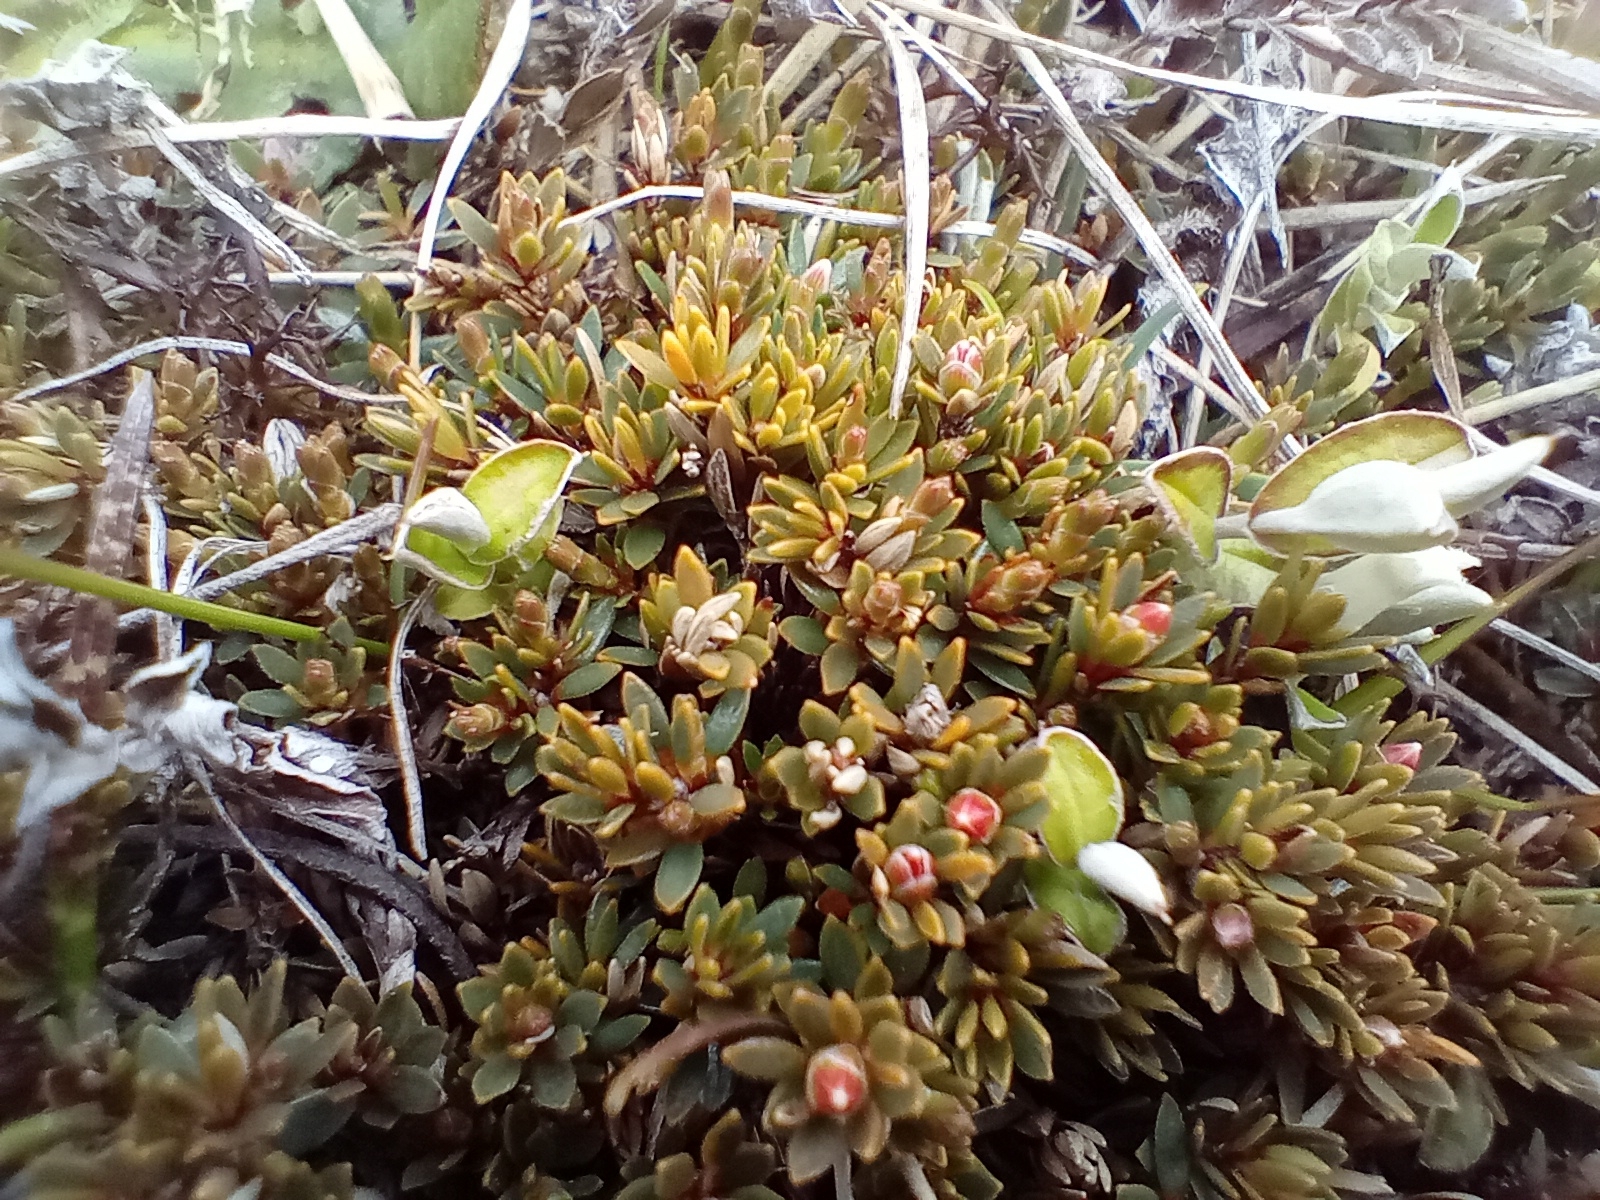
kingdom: Plantae
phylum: Tracheophyta
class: Magnoliopsida
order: Ericales
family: Ericaceae
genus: Pentachondra
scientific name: Pentachondra pumila
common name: Carpet-heath
